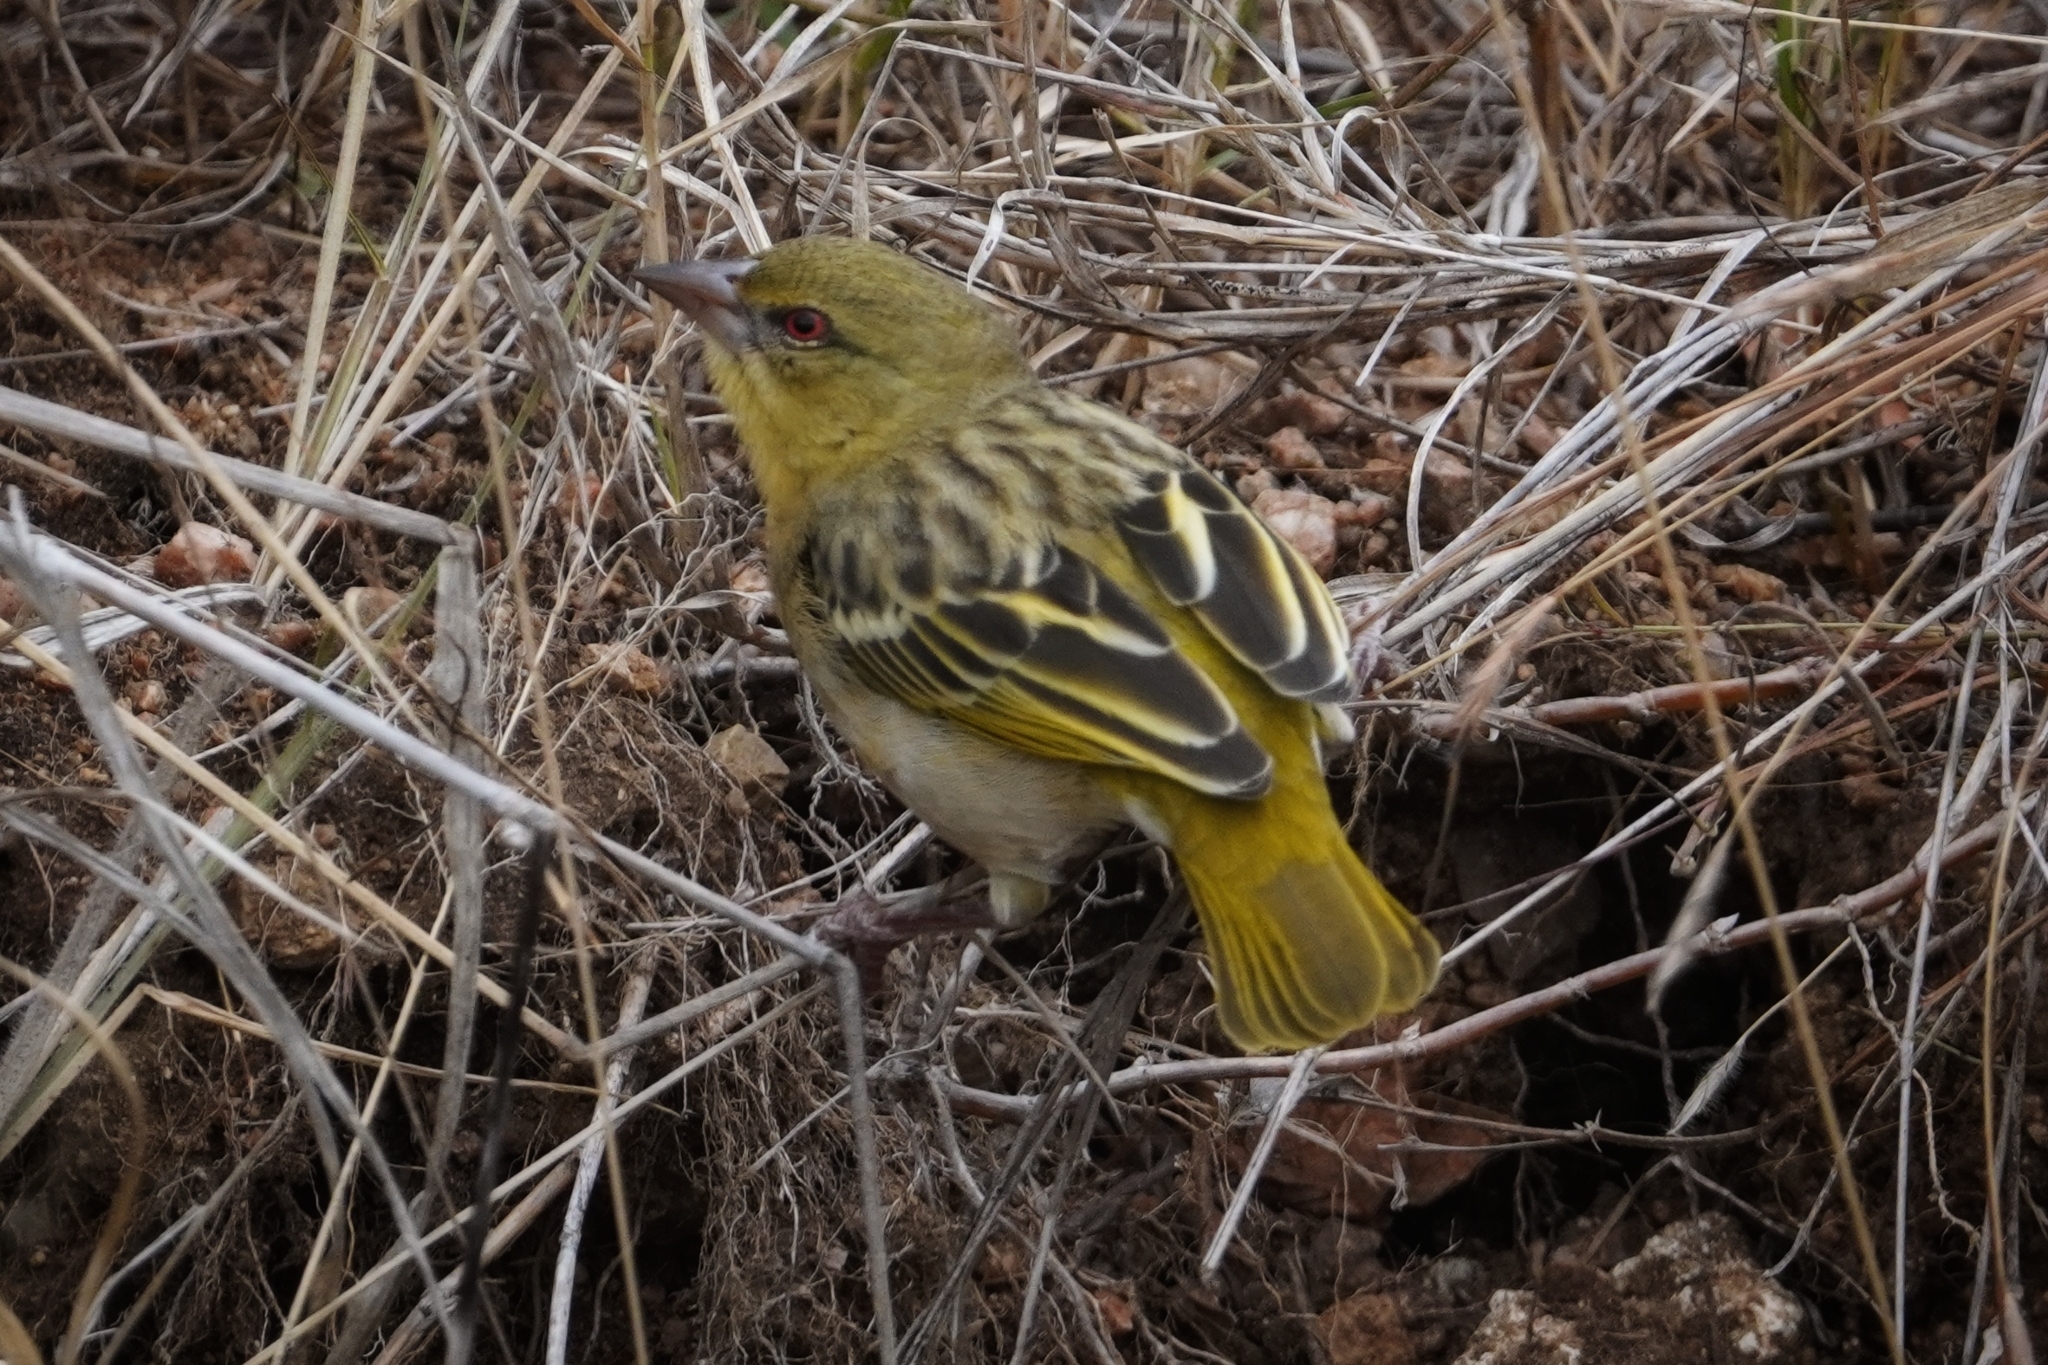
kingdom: Animalia
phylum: Chordata
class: Aves
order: Passeriformes
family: Ploceidae
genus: Ploceus
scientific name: Ploceus velatus
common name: Southern masked weaver
